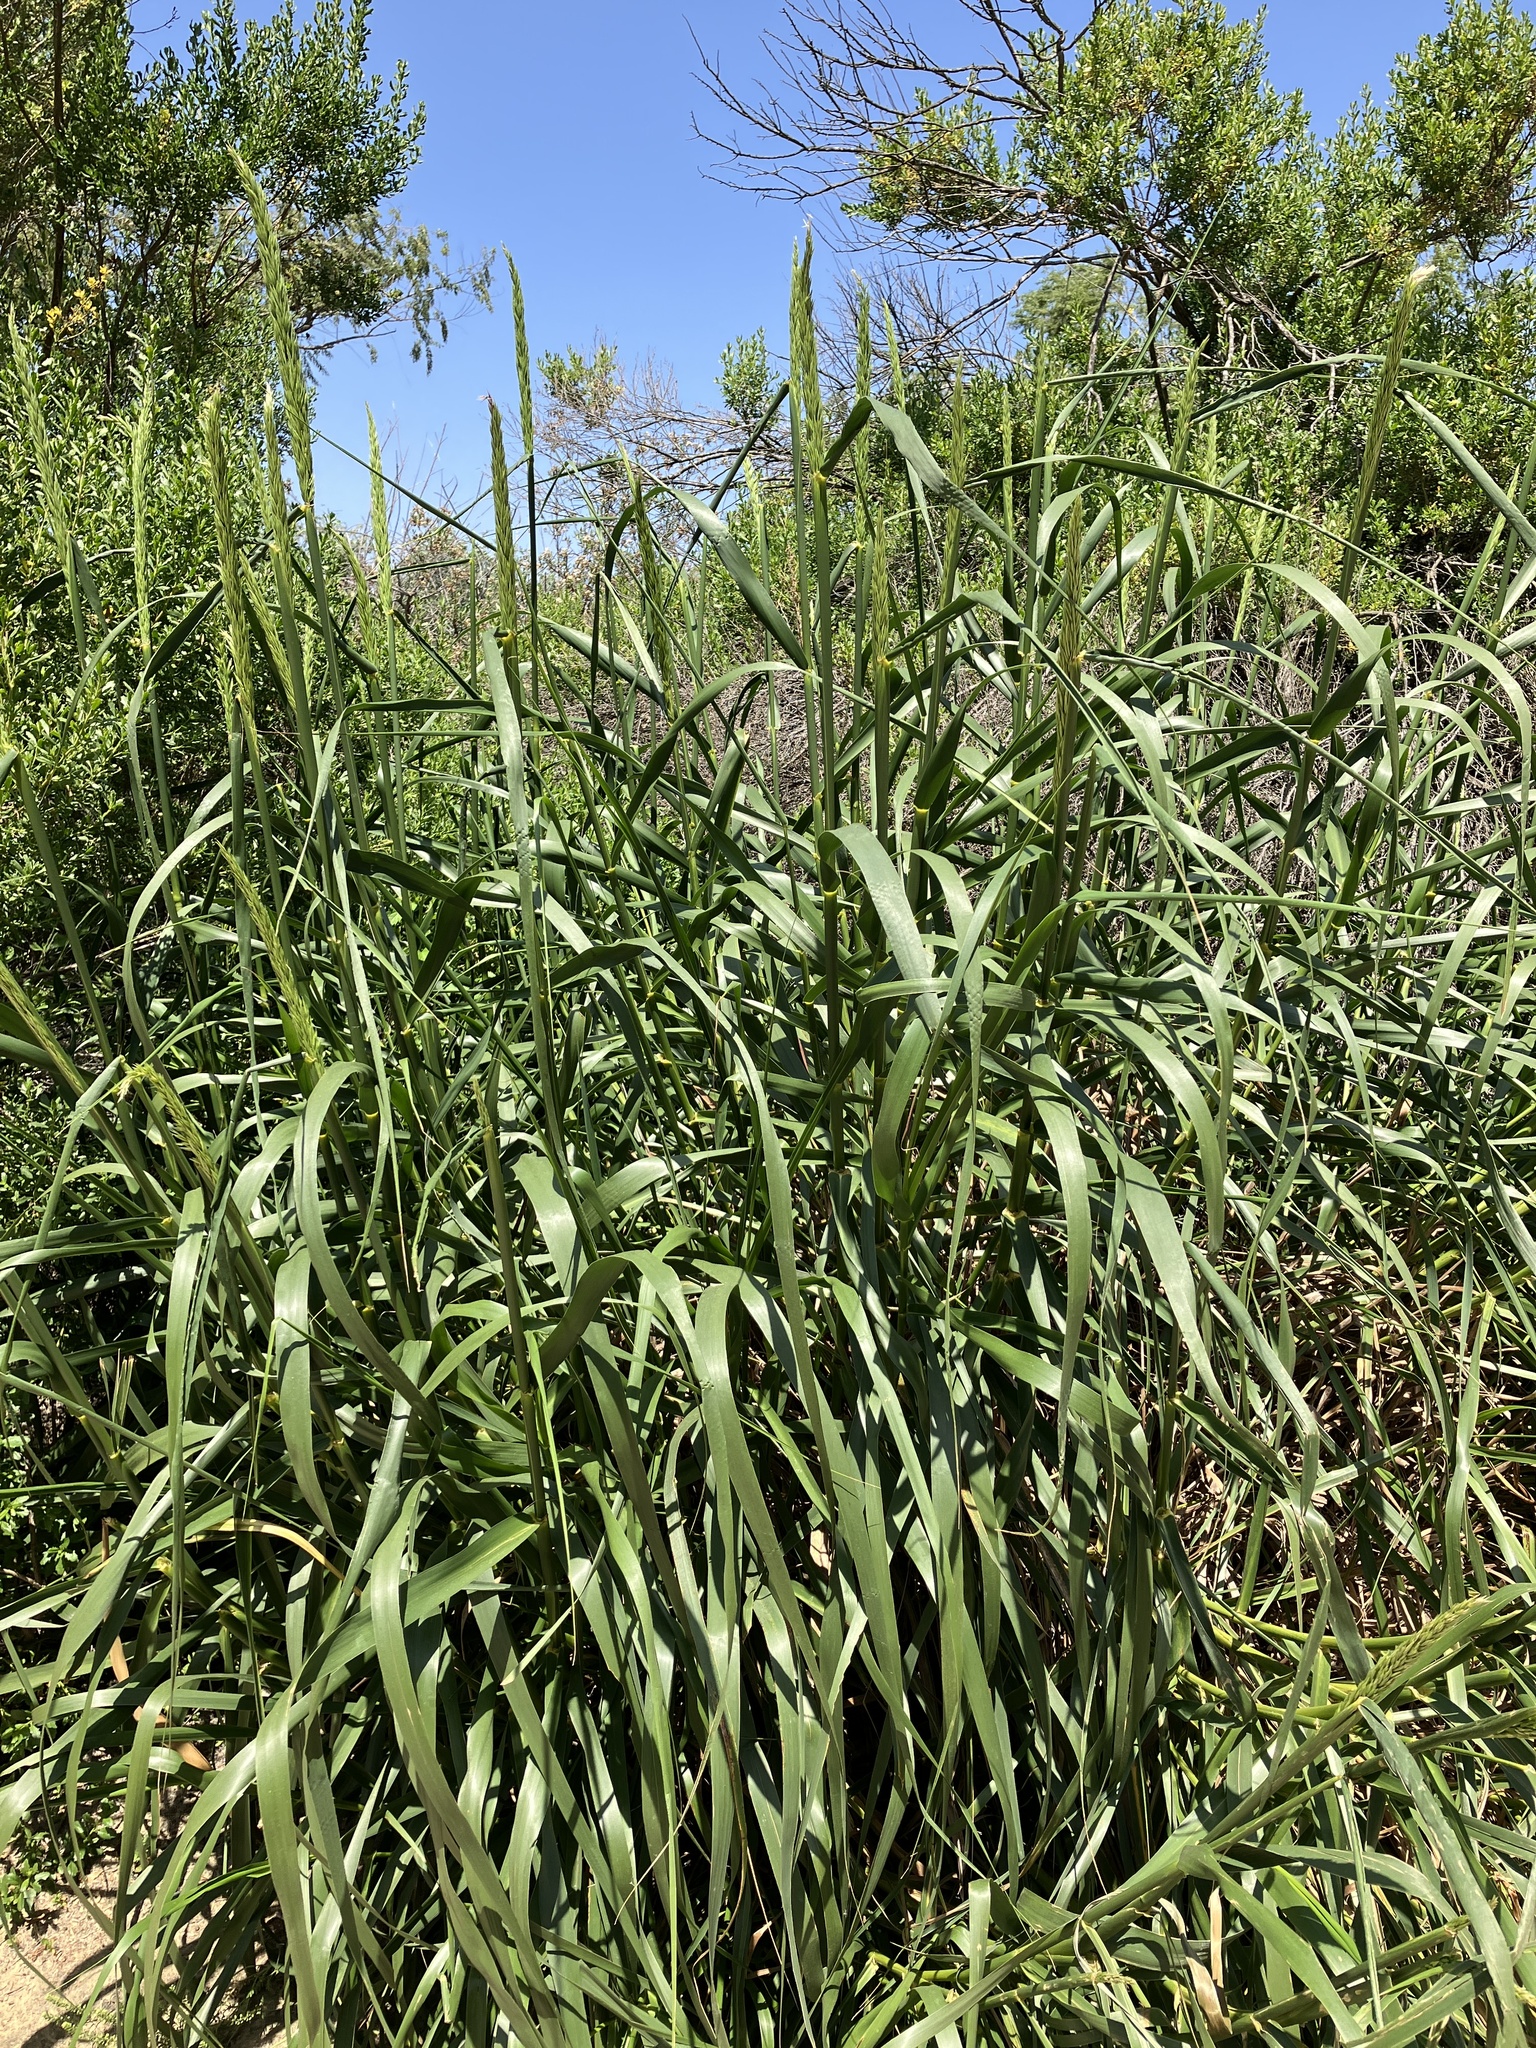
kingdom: Plantae
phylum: Tracheophyta
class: Liliopsida
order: Poales
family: Poaceae
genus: Leymus
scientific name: Leymus condensatus
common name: Giant wild rye
